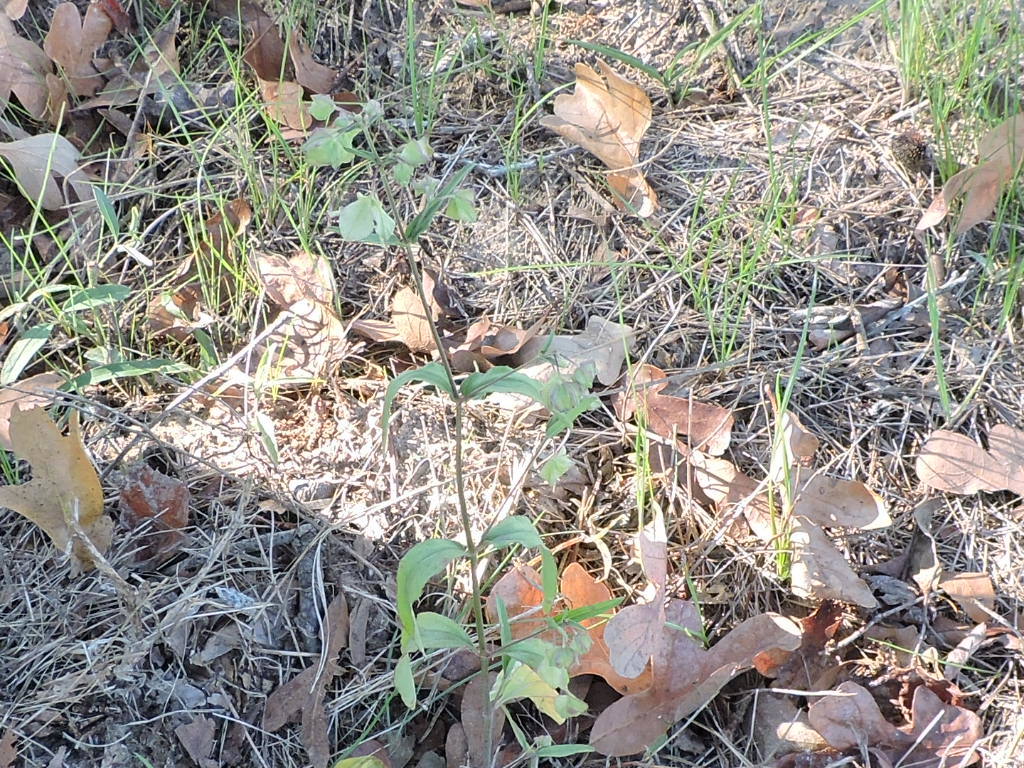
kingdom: Plantae
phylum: Tracheophyta
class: Magnoliopsida
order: Caryophyllales
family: Nyctaginaceae
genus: Mirabilis
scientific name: Mirabilis albida
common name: Hairy four-o'clock
